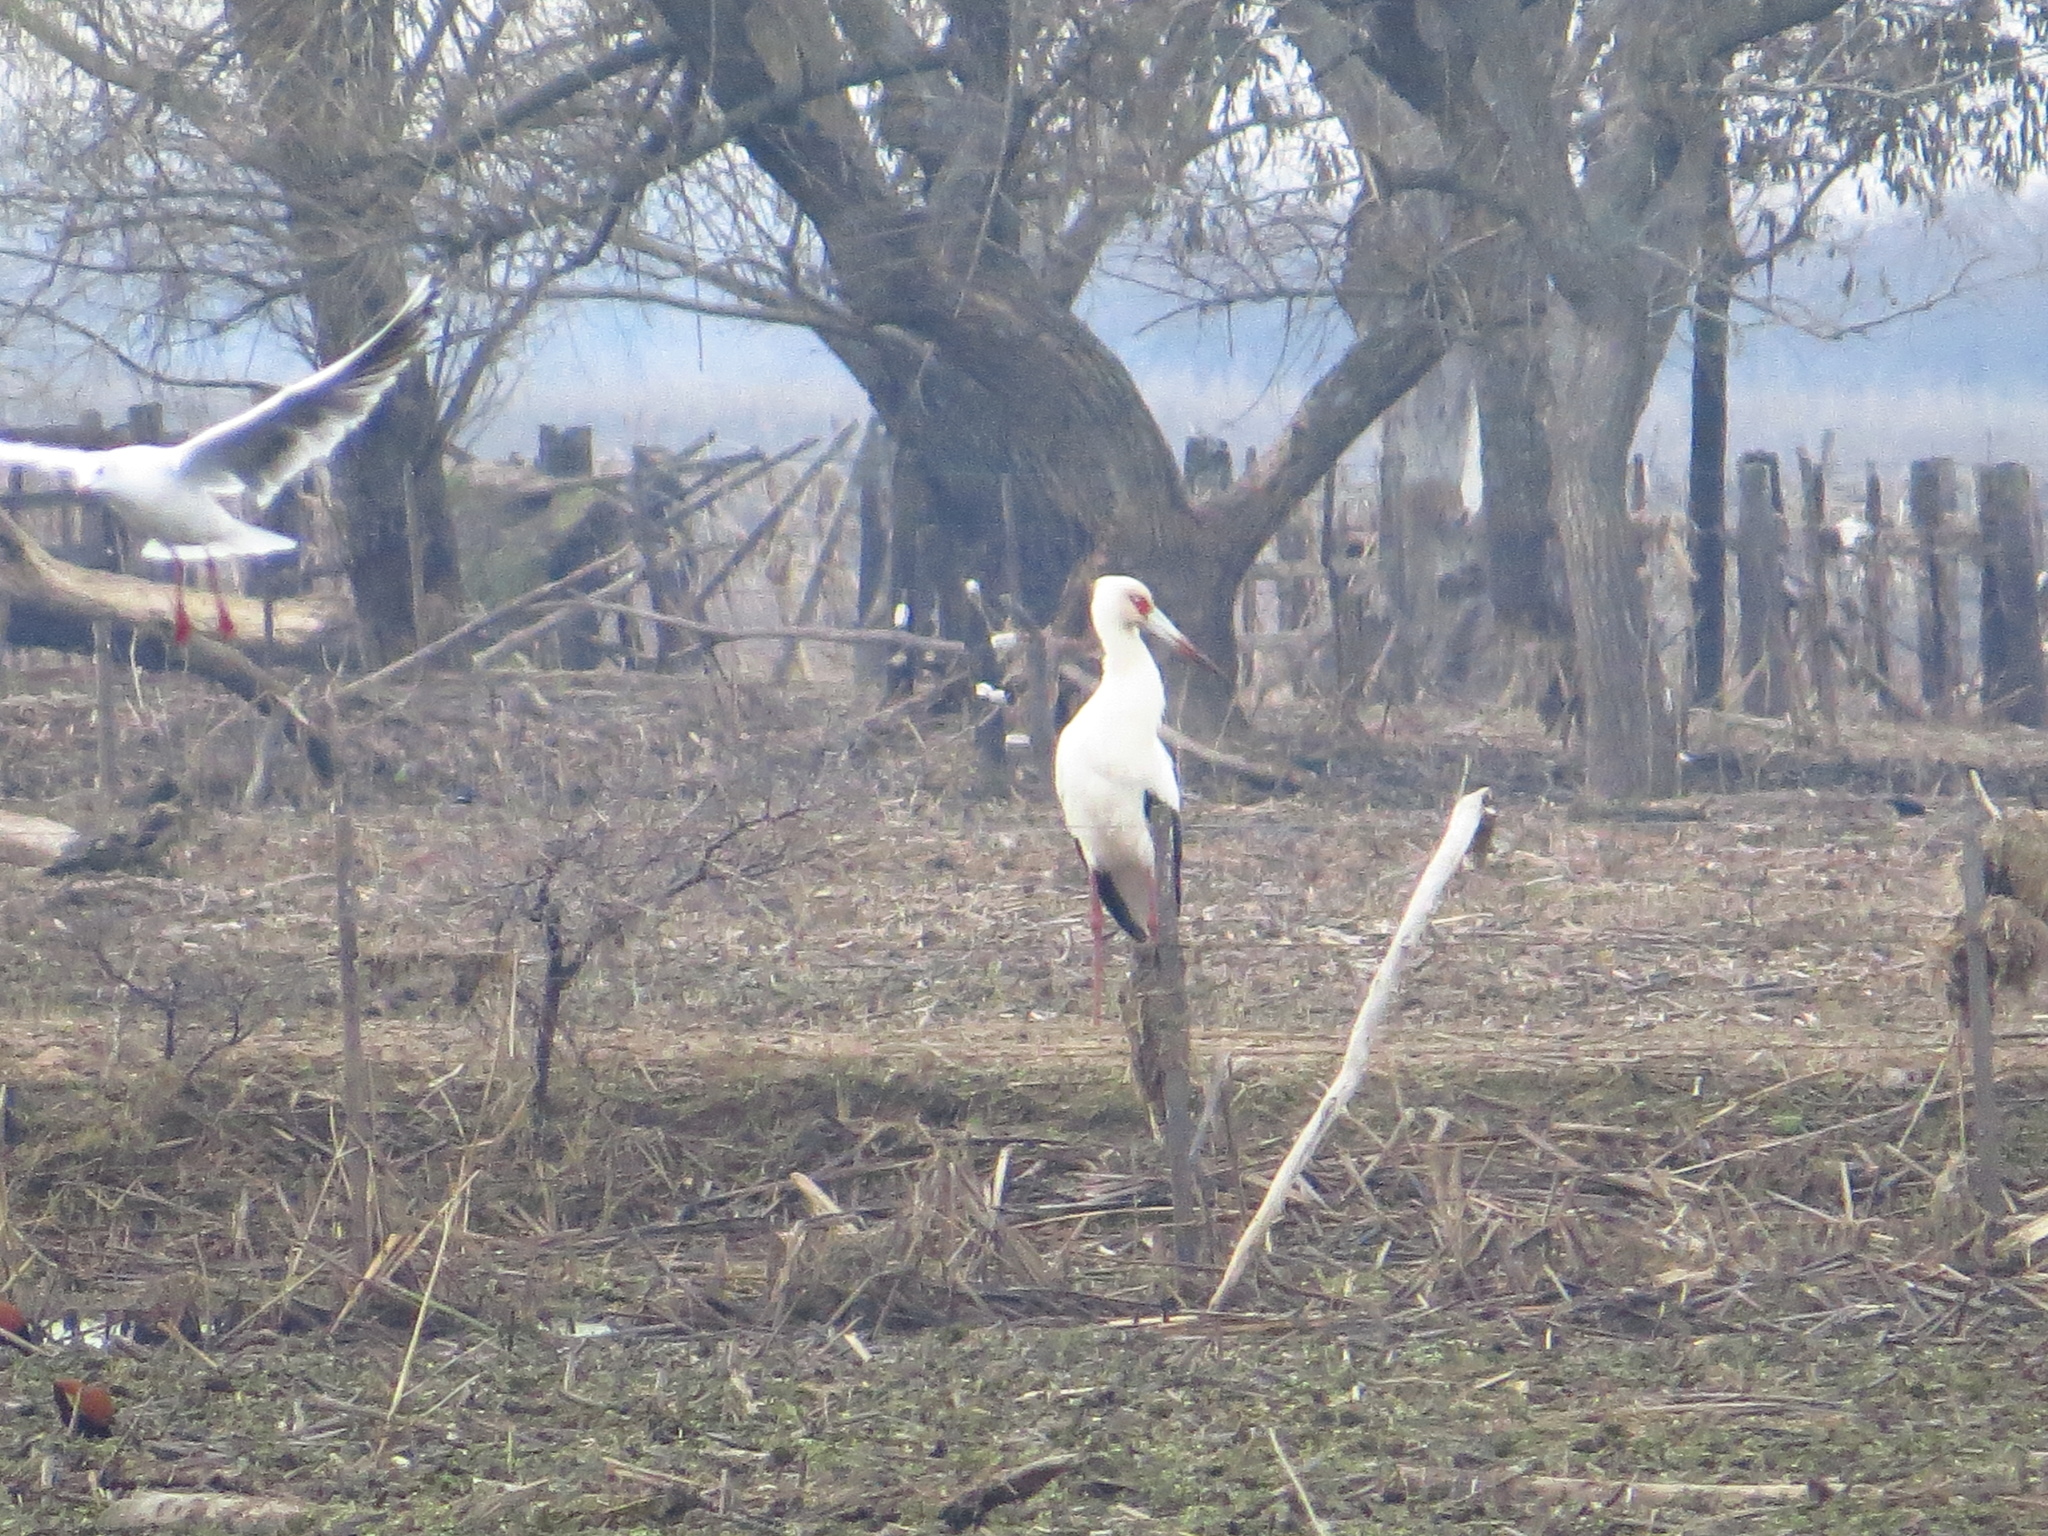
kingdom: Animalia
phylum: Chordata
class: Aves
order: Ciconiiformes
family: Ciconiidae
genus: Ciconia
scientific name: Ciconia maguari
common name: Maguari stork
